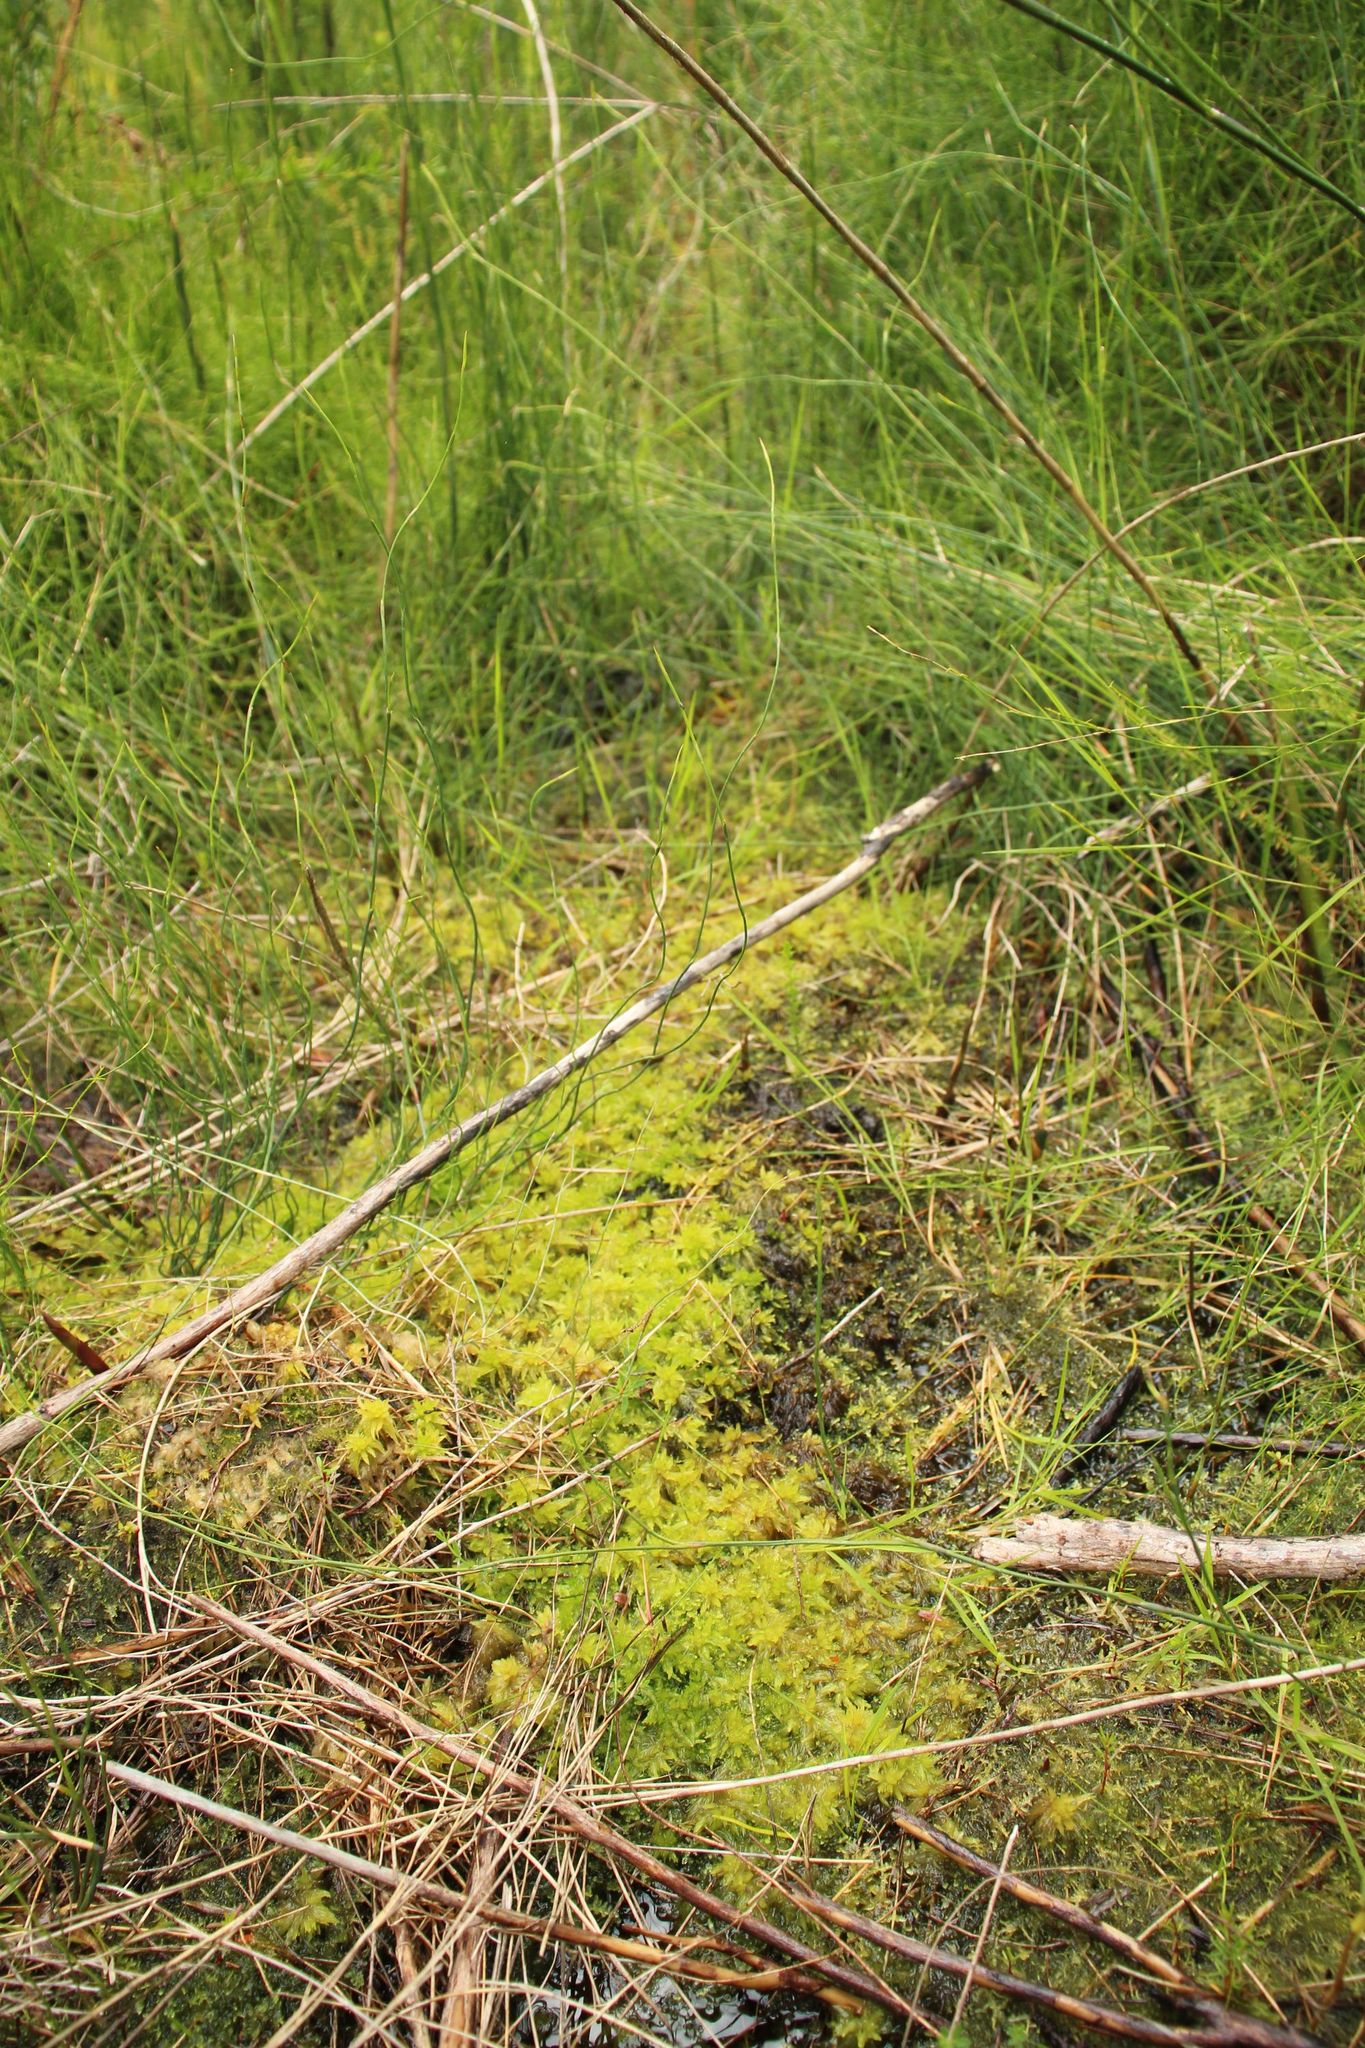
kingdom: Plantae
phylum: Bryophyta
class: Sphagnopsida
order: Sphagnales
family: Sphagnaceae
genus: Sphagnum
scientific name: Sphagnum novozelandicum
